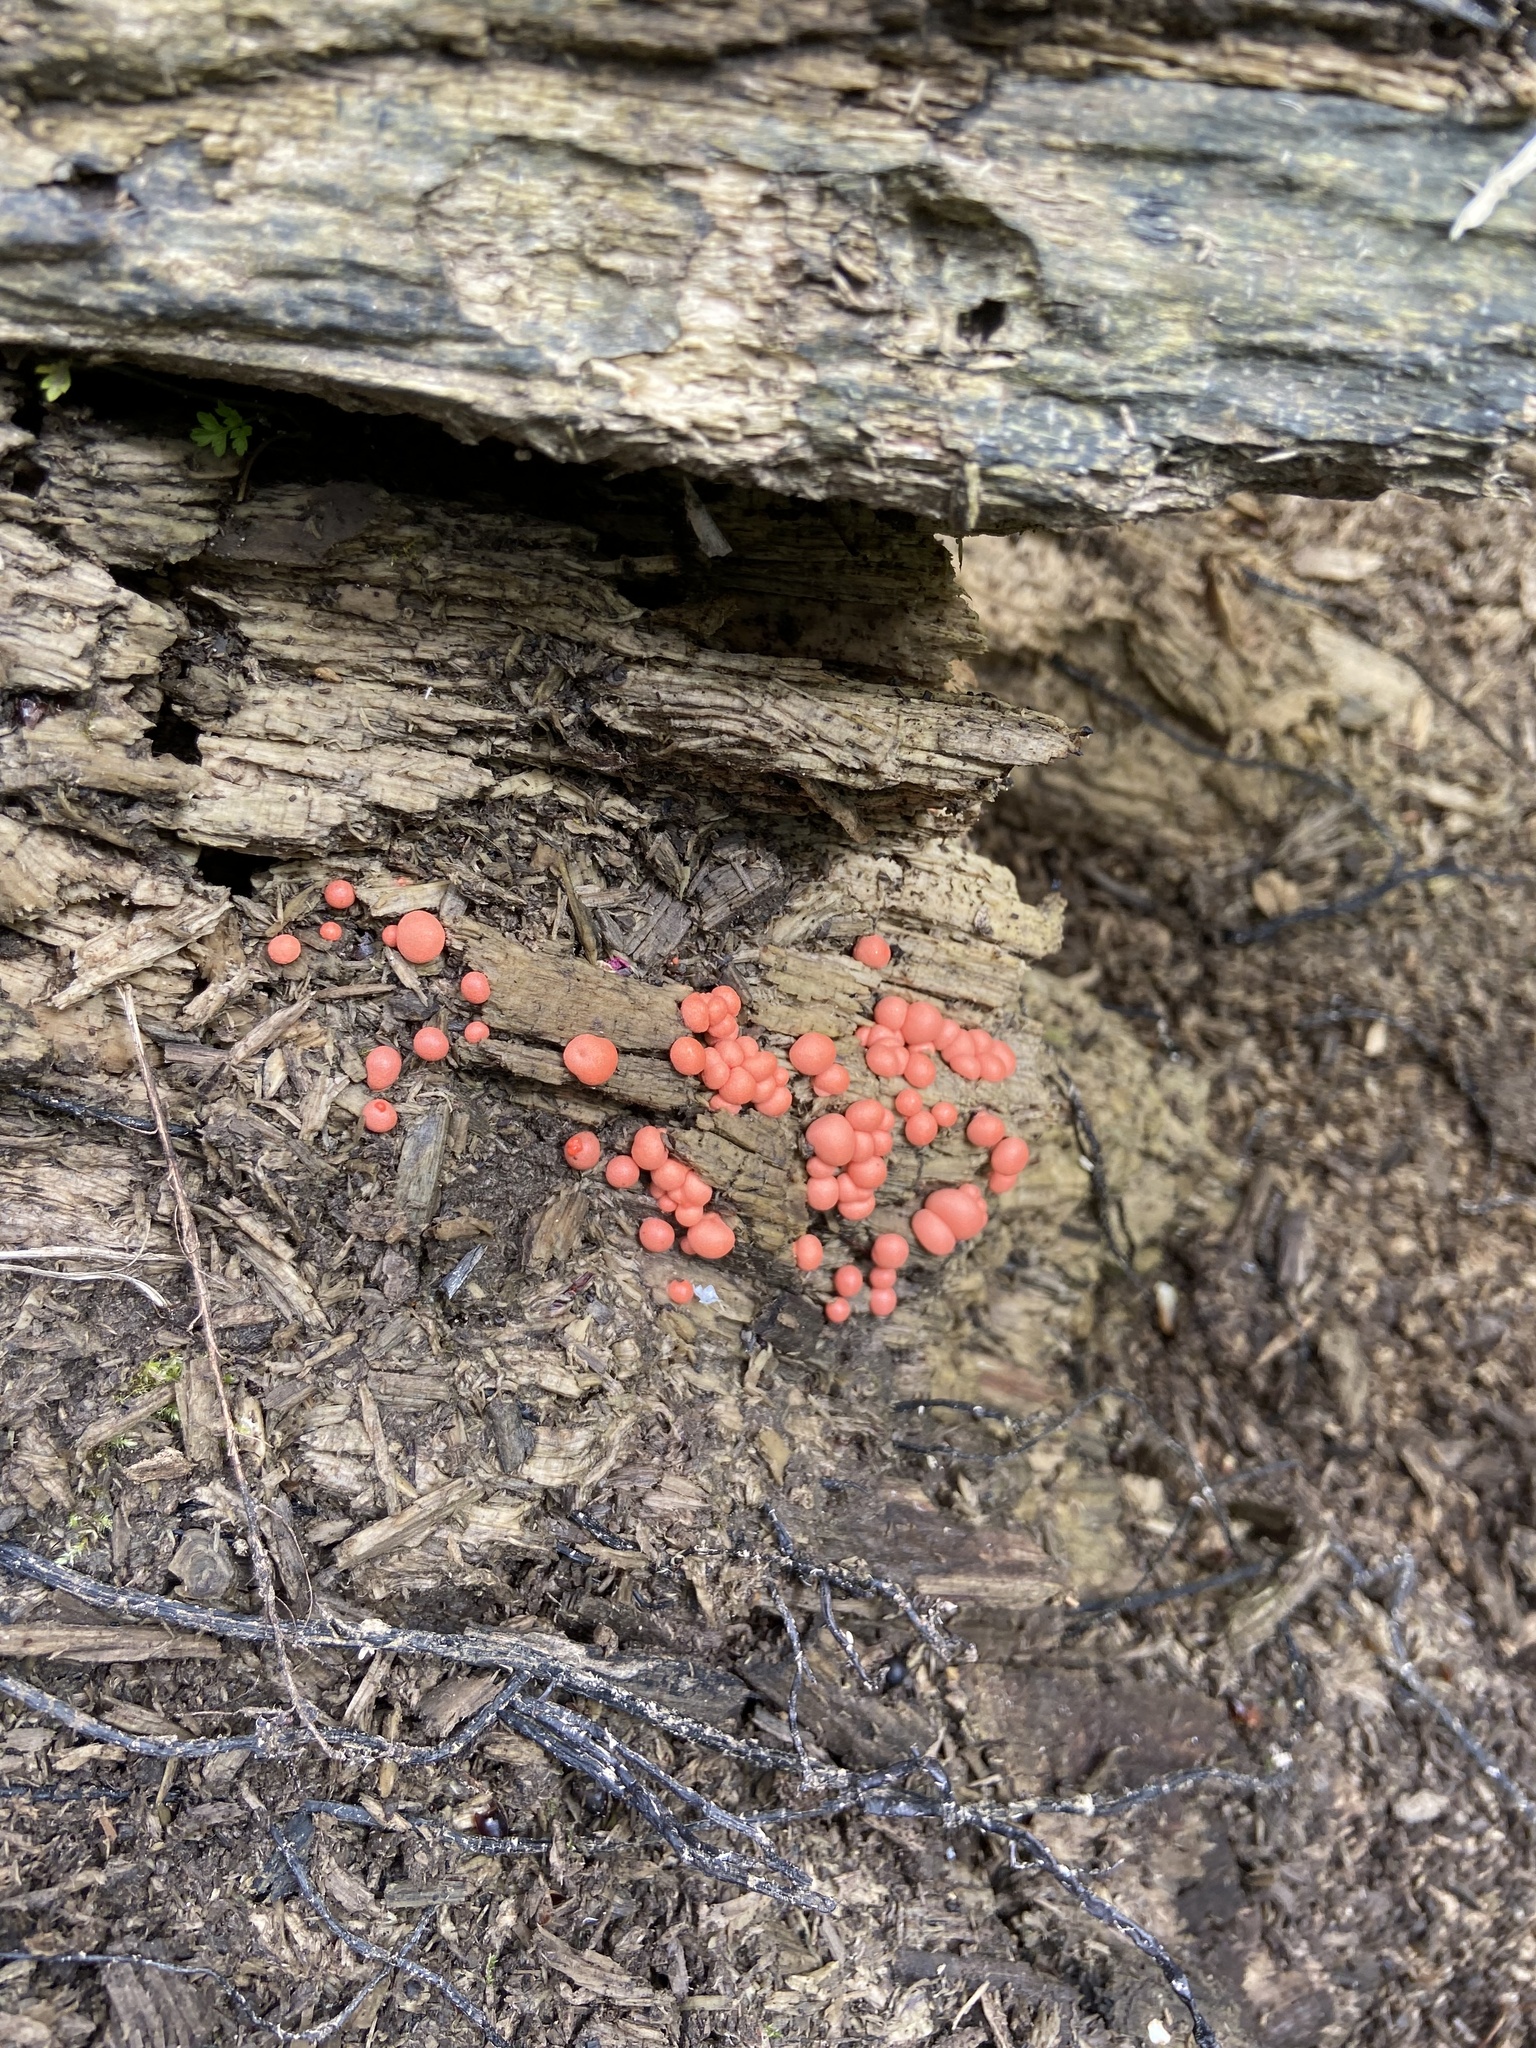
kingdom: Protozoa
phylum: Mycetozoa
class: Myxomycetes
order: Cribrariales
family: Tubiferaceae
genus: Lycogala
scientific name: Lycogala epidendrum
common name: Wolf's milk
